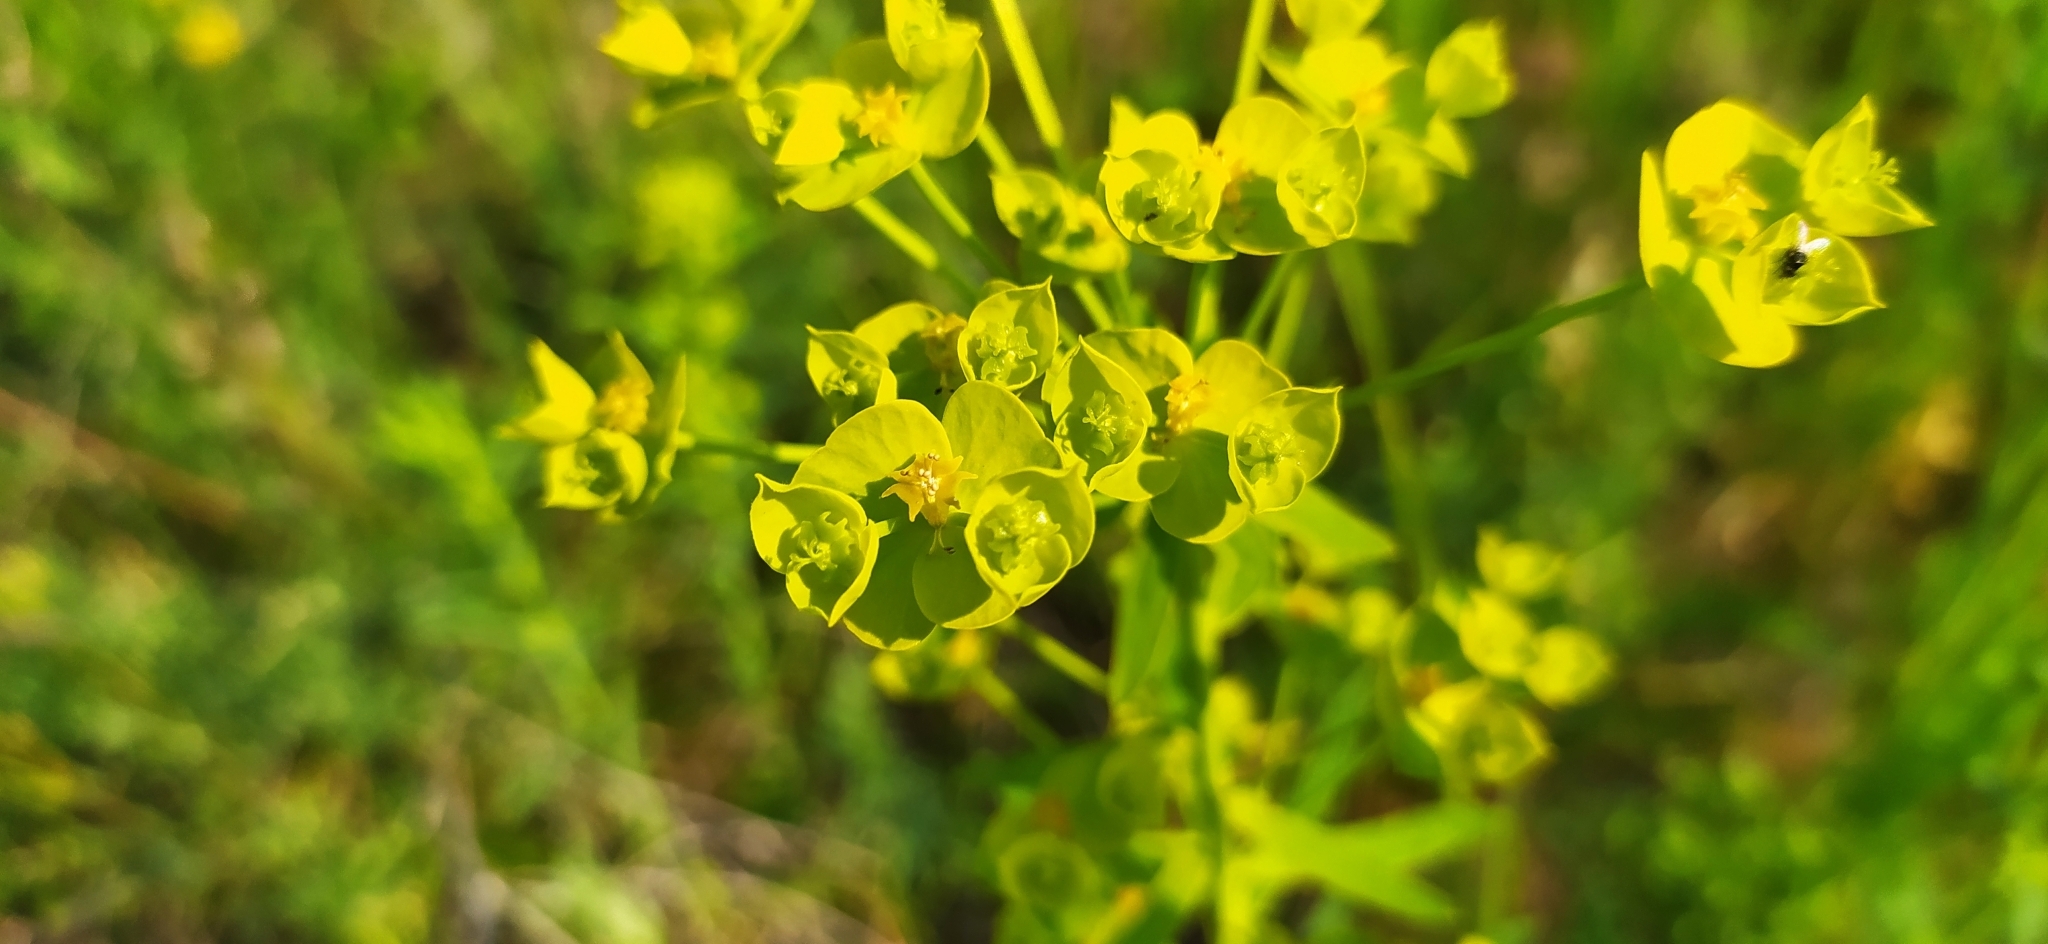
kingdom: Plantae
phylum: Tracheophyta
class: Magnoliopsida
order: Malpighiales
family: Euphorbiaceae
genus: Euphorbia
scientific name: Euphorbia virgata
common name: Leafy spurge
